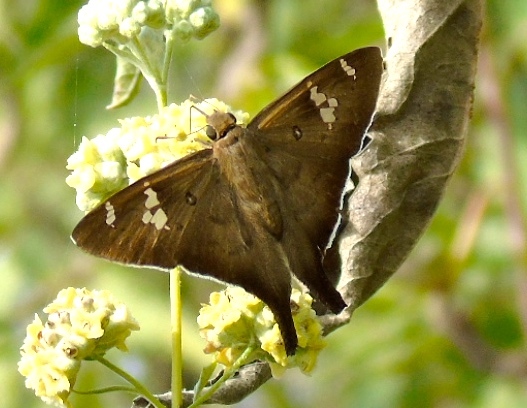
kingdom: Animalia
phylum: Arthropoda
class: Insecta
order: Lepidoptera
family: Hesperiidae
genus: Ectomis
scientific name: Ectomis
